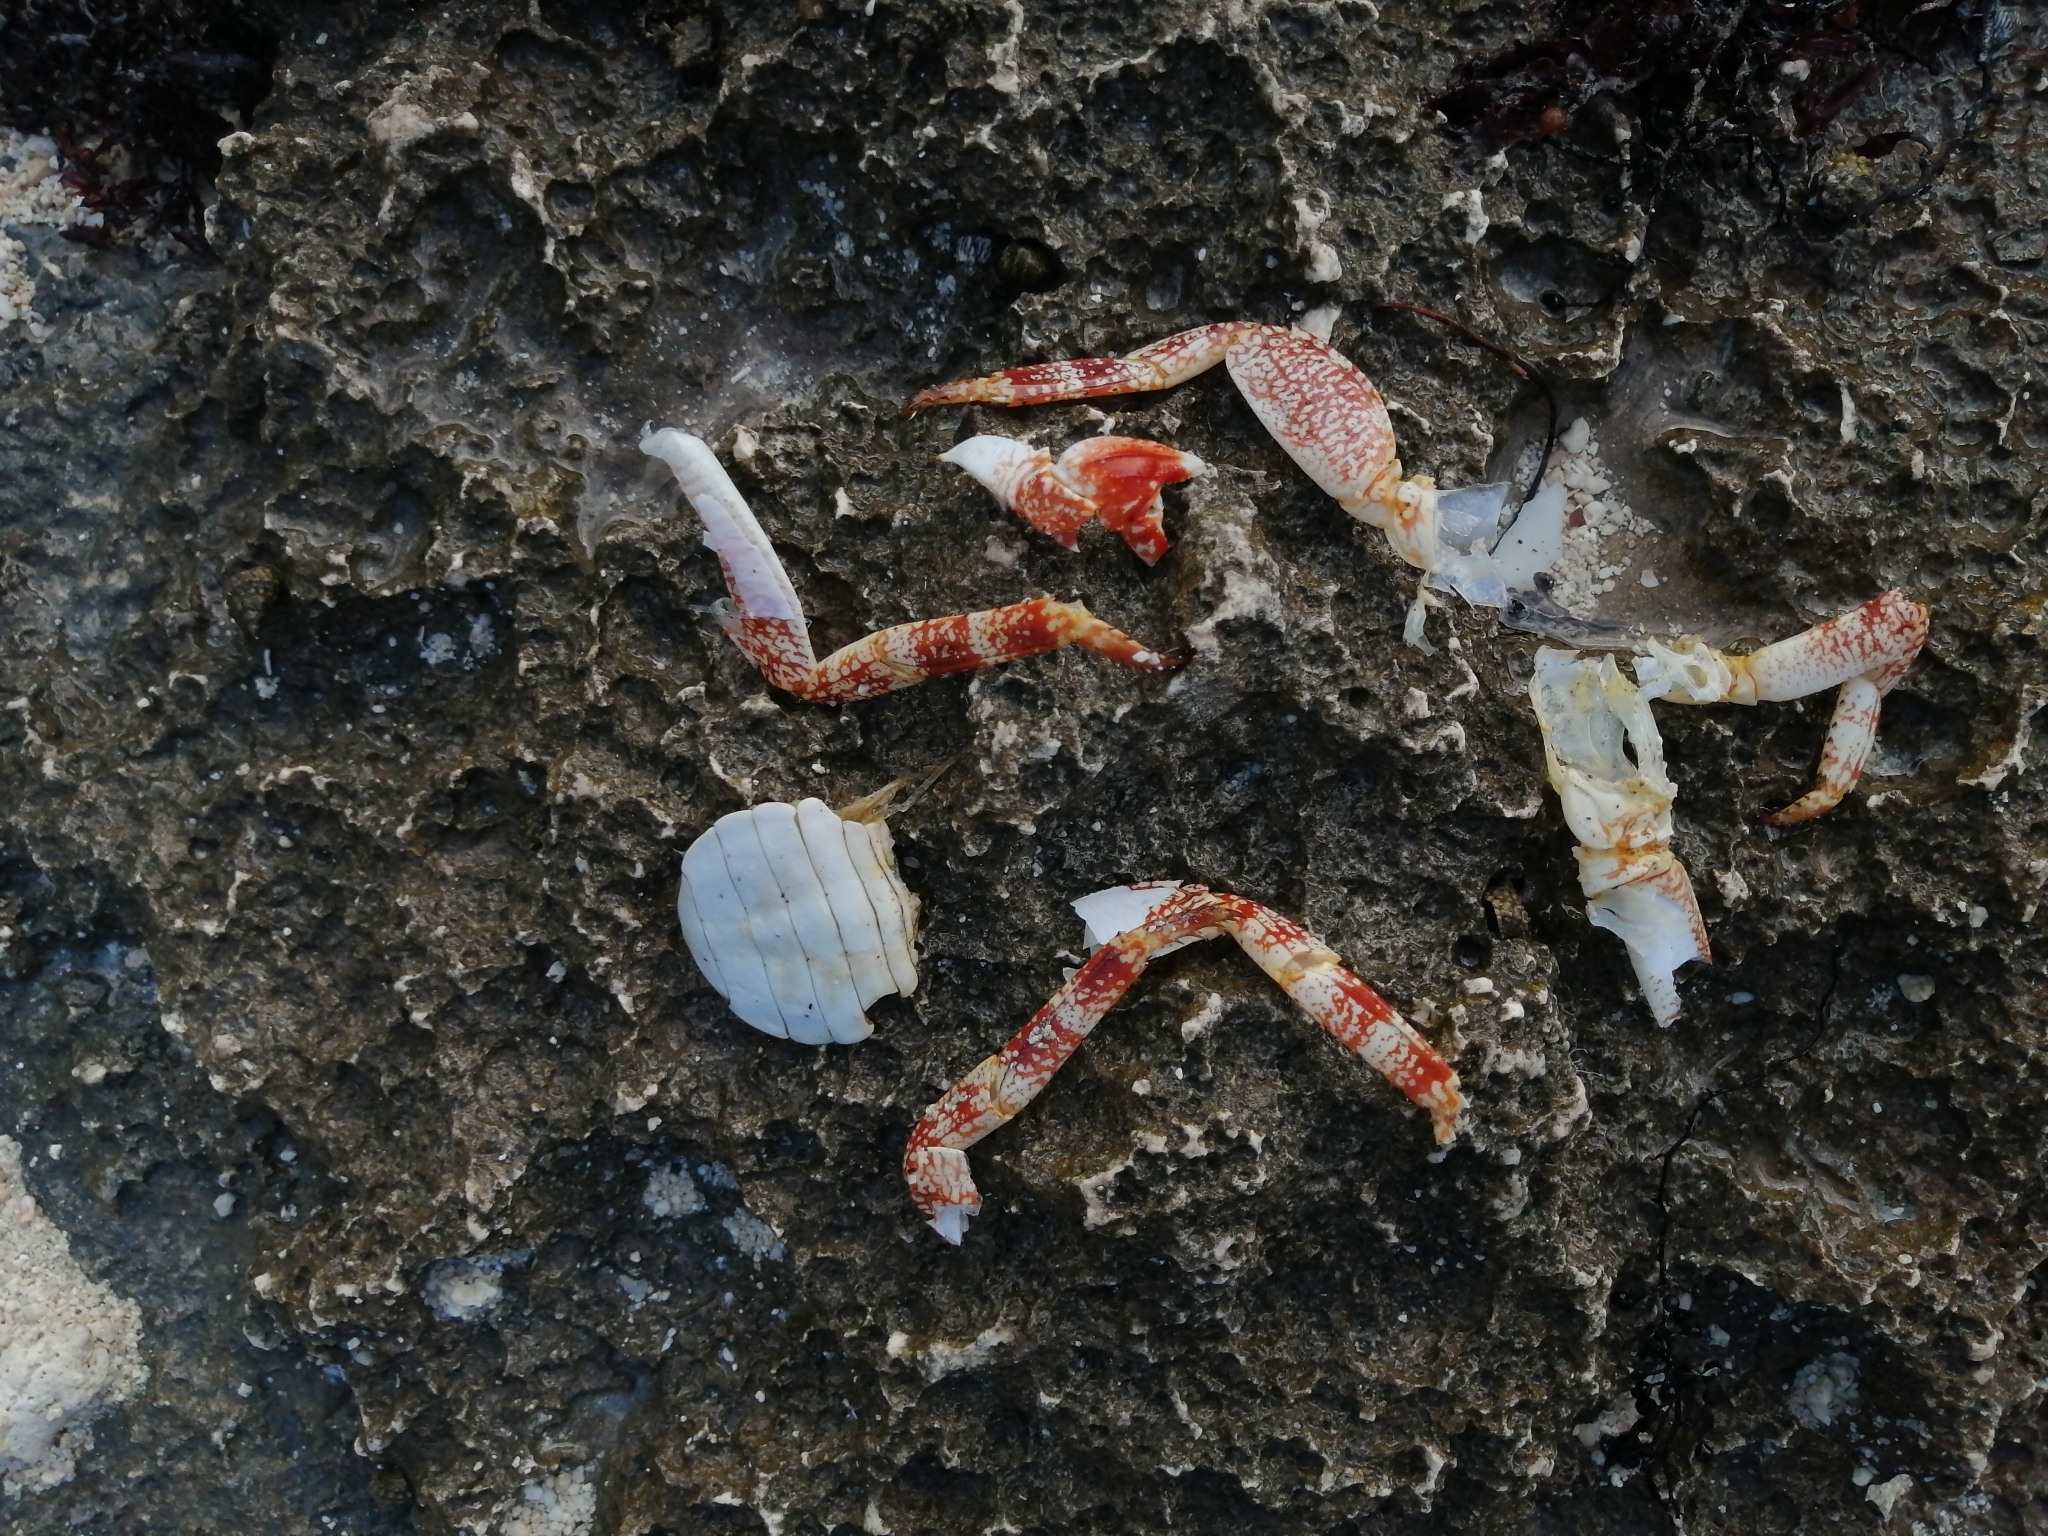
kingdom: Animalia
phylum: Arthropoda
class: Malacostraca
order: Decapoda
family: Grapsidae
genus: Grapsus
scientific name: Grapsus grapsus
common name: Sally lightfoot
